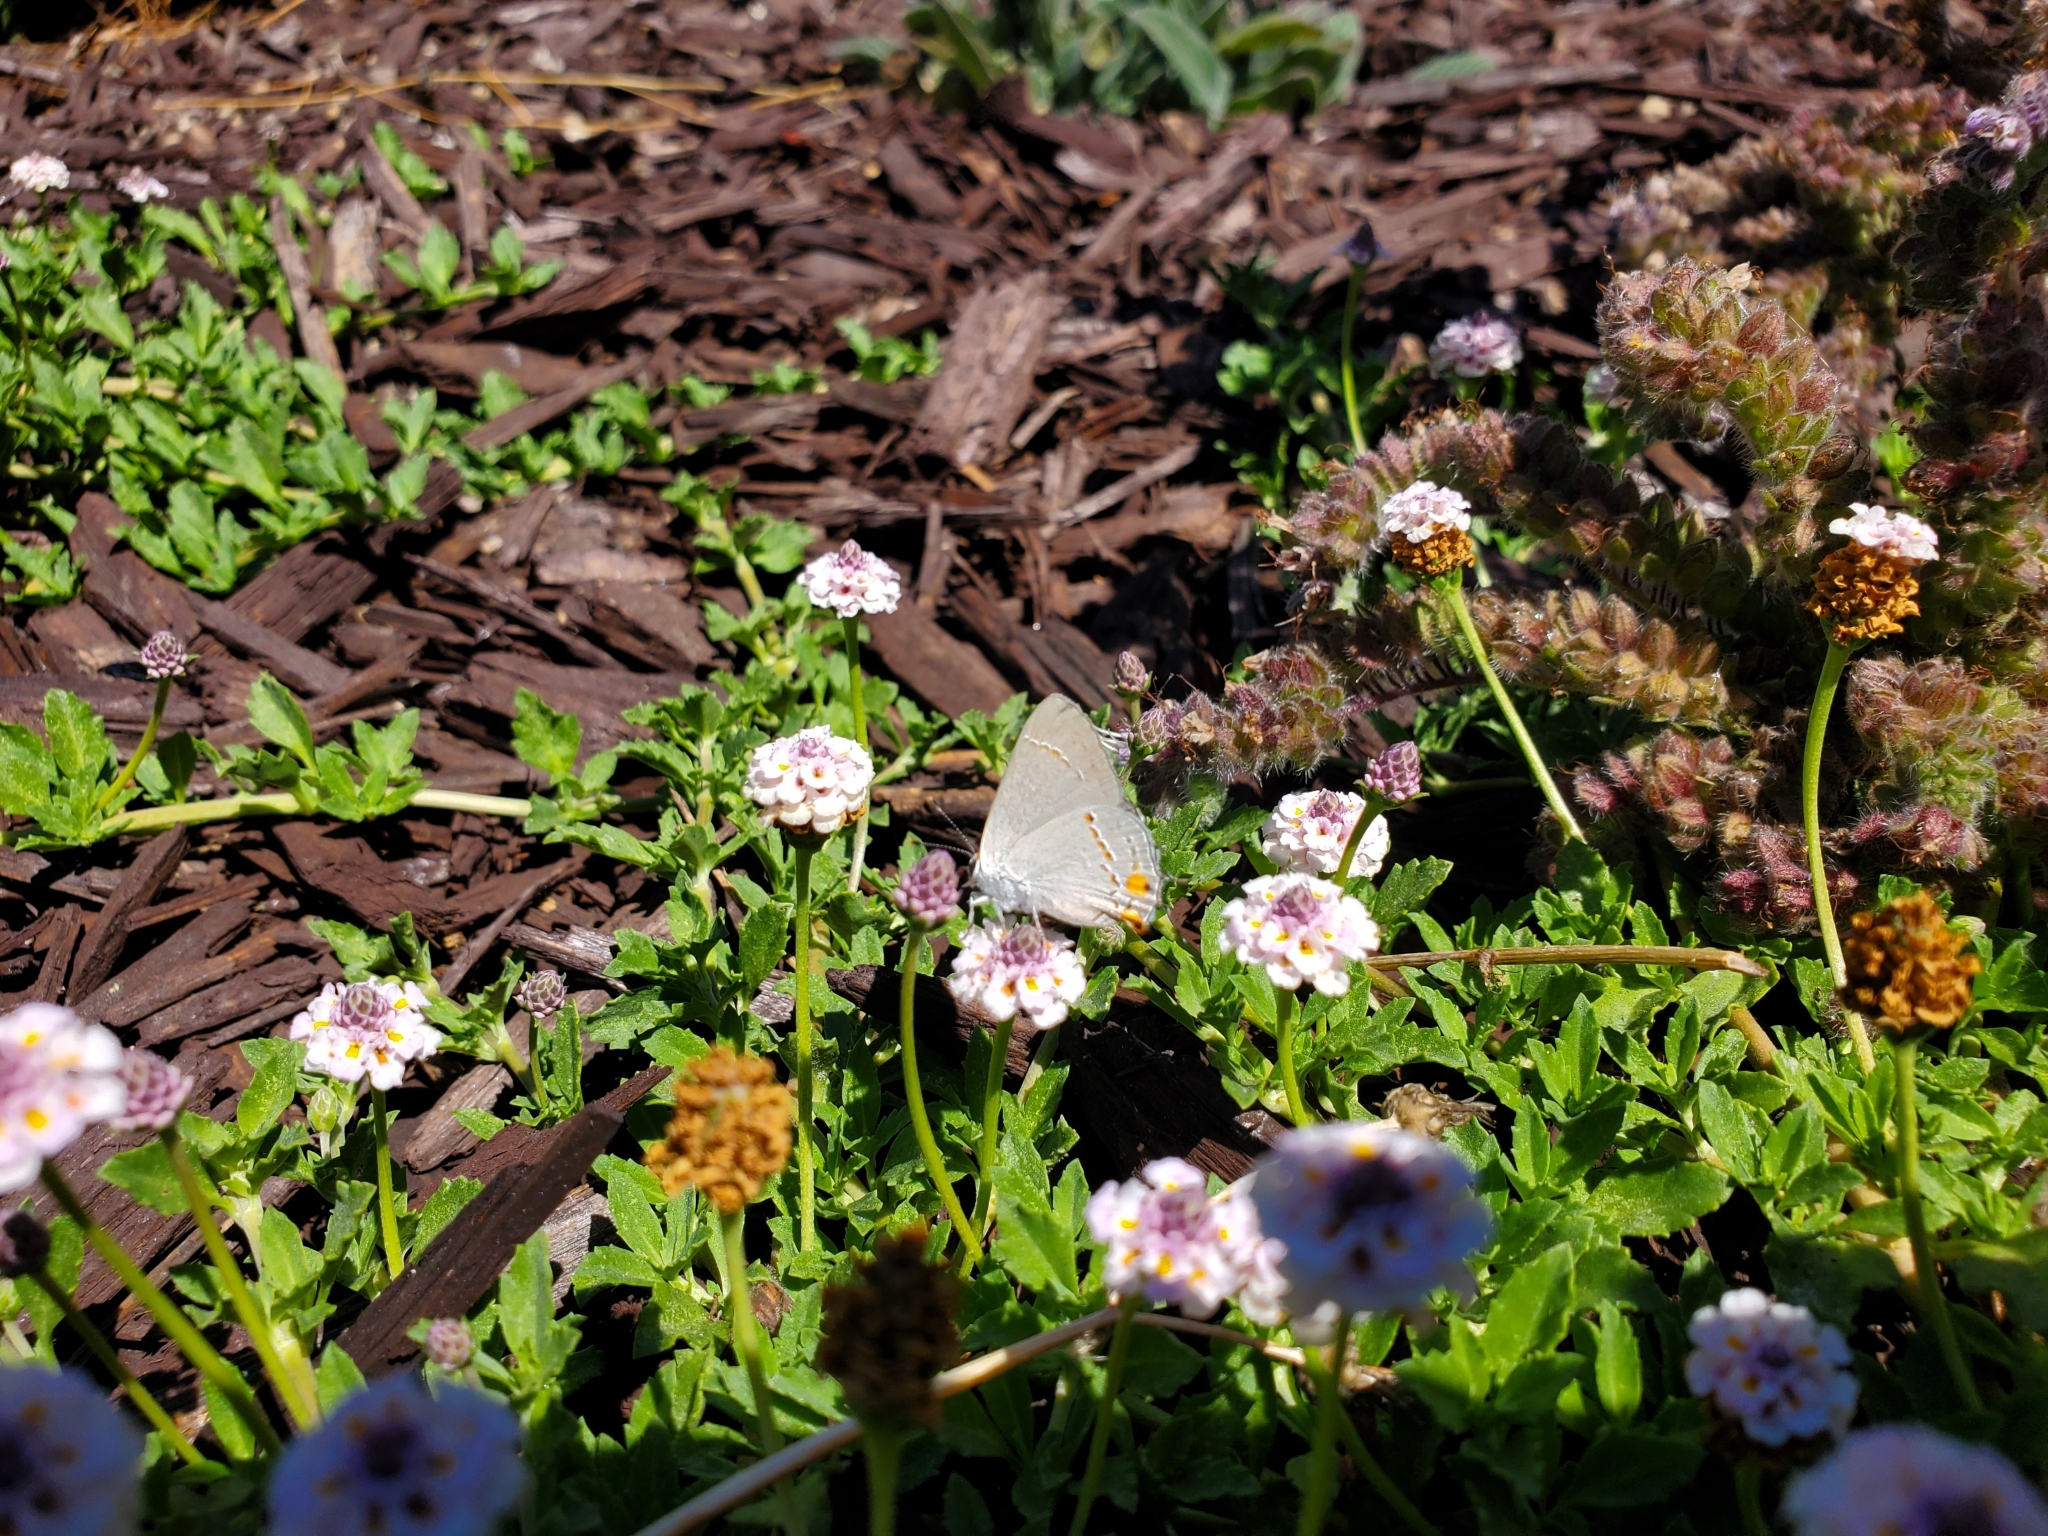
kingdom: Animalia
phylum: Arthropoda
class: Insecta
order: Lepidoptera
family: Lycaenidae
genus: Strymon
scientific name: Strymon melinus
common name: Gray hairstreak
